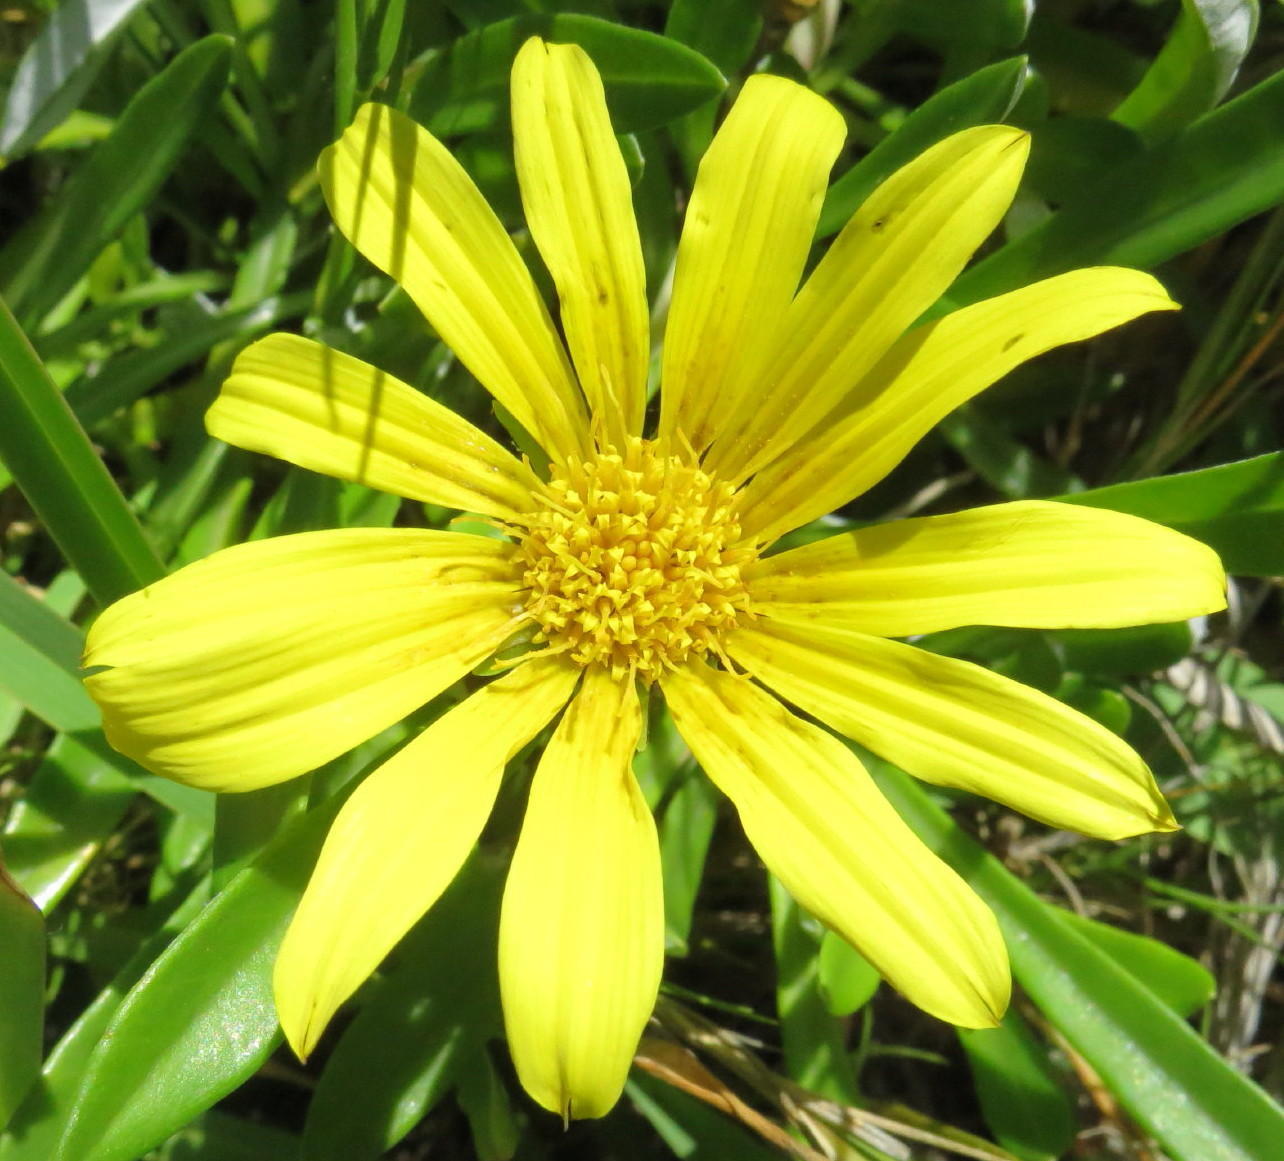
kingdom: Plantae
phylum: Tracheophyta
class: Magnoliopsida
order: Asterales
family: Asteraceae
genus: Gazania
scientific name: Gazania rigens
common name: Treasureflower
